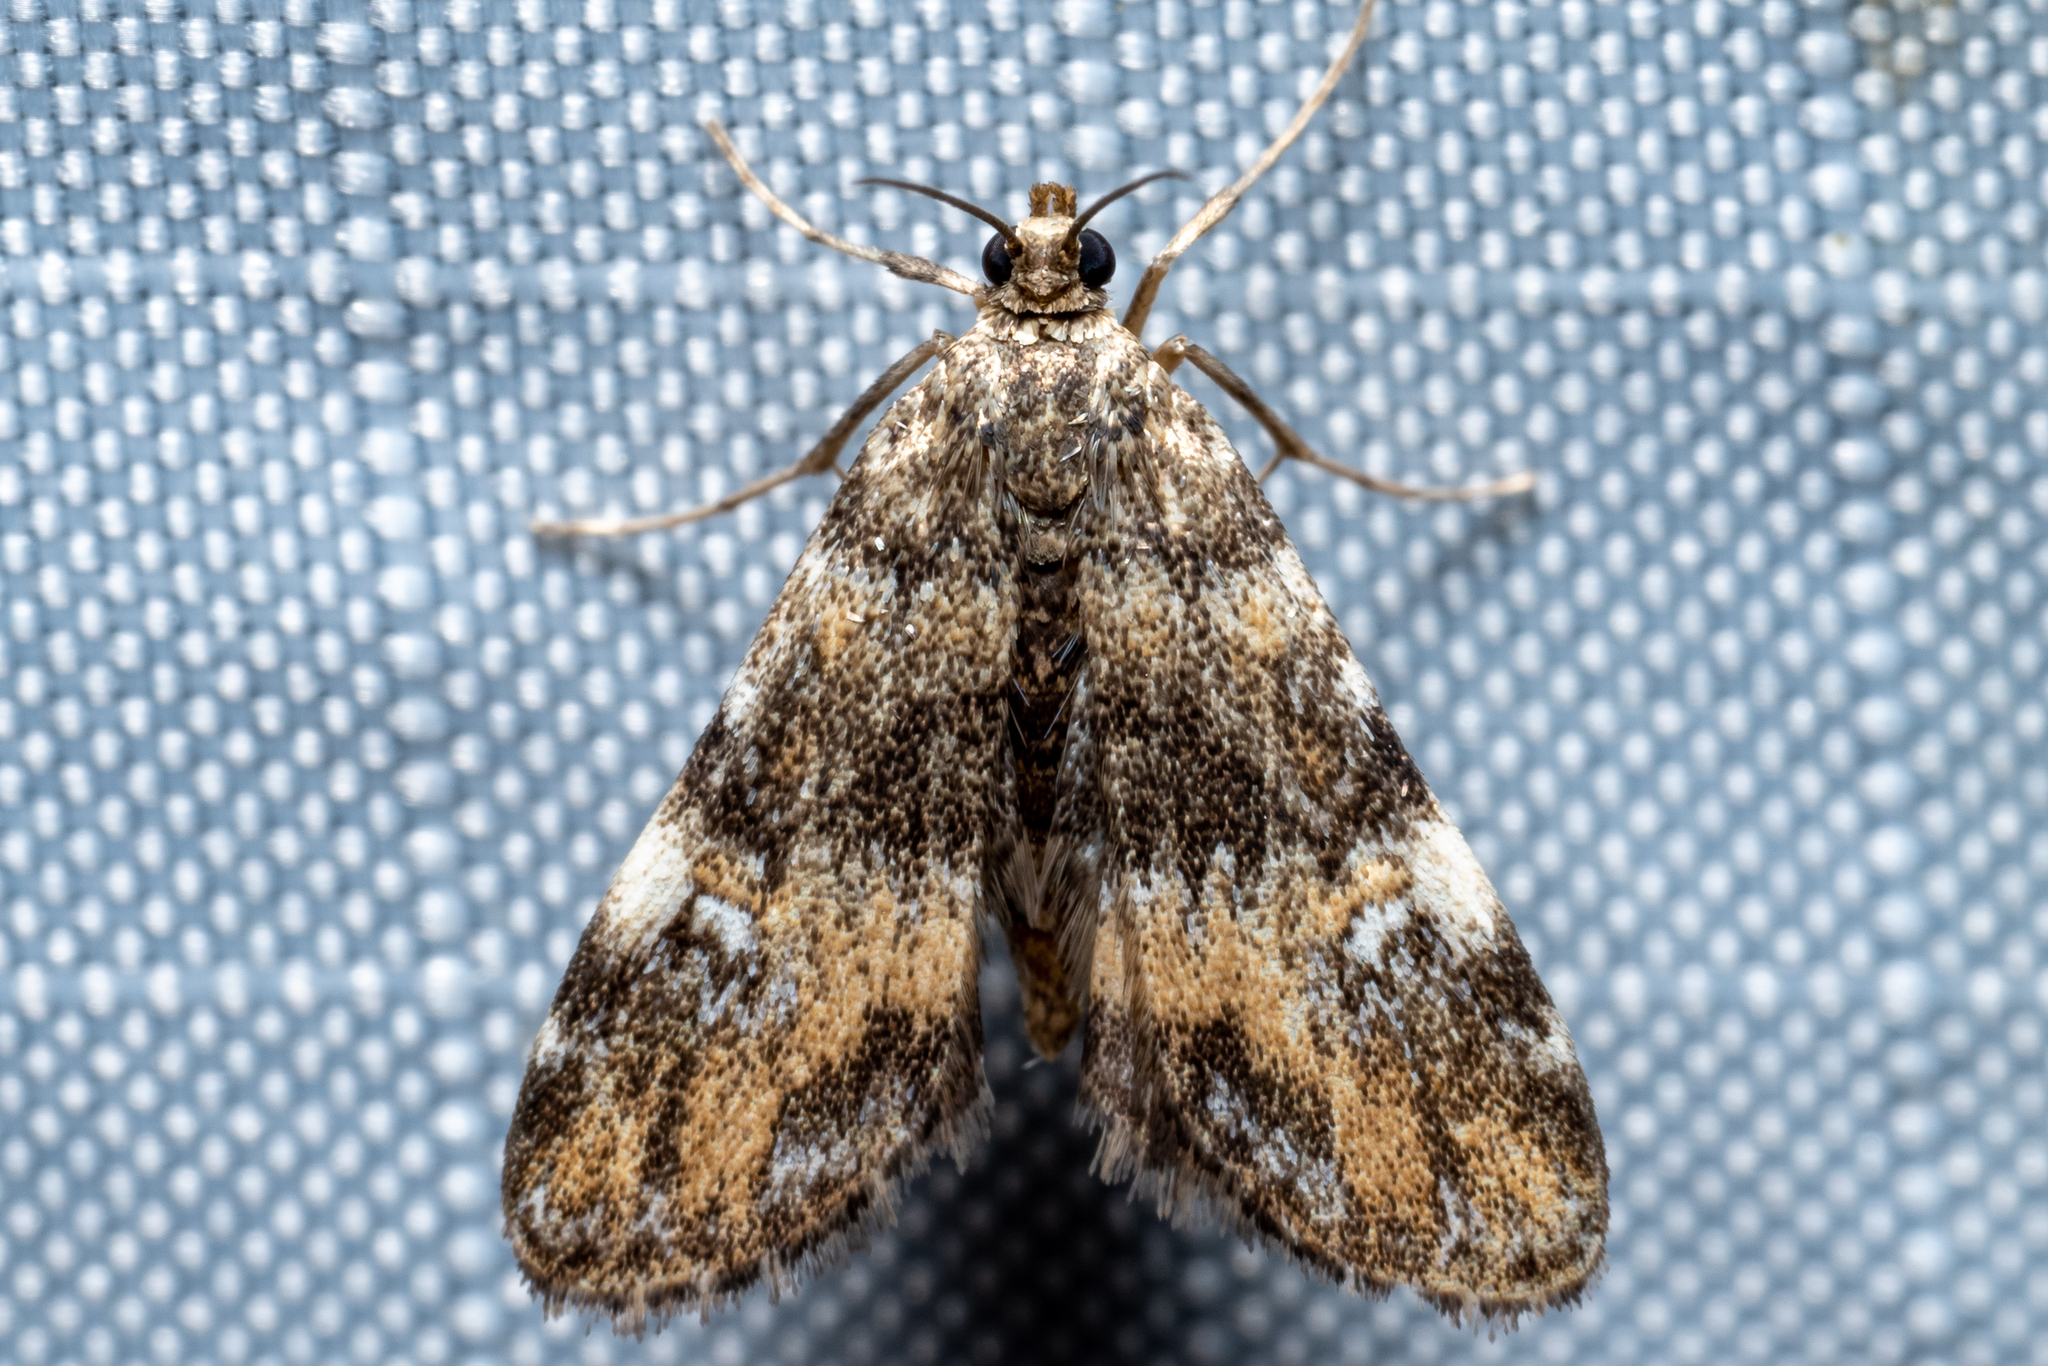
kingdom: Animalia
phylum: Arthropoda
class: Insecta
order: Lepidoptera
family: Crambidae
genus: Elophila
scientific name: Elophila obliteralis
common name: Waterlily leafcutter moth
